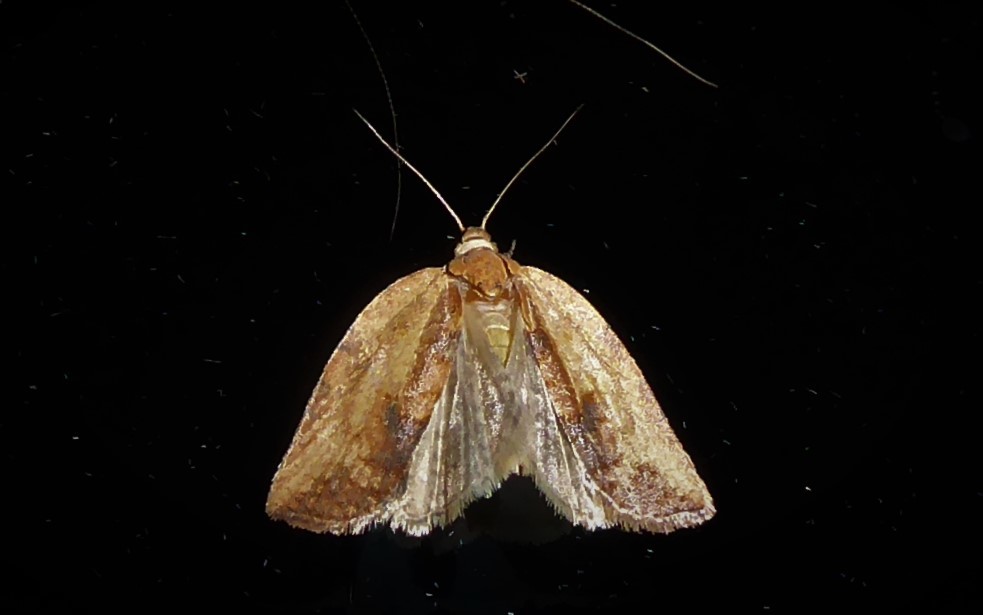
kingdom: Animalia
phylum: Arthropoda
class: Insecta
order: Lepidoptera
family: Tortricidae
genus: Epiphyas
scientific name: Epiphyas postvittana
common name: Light brown apple moth
